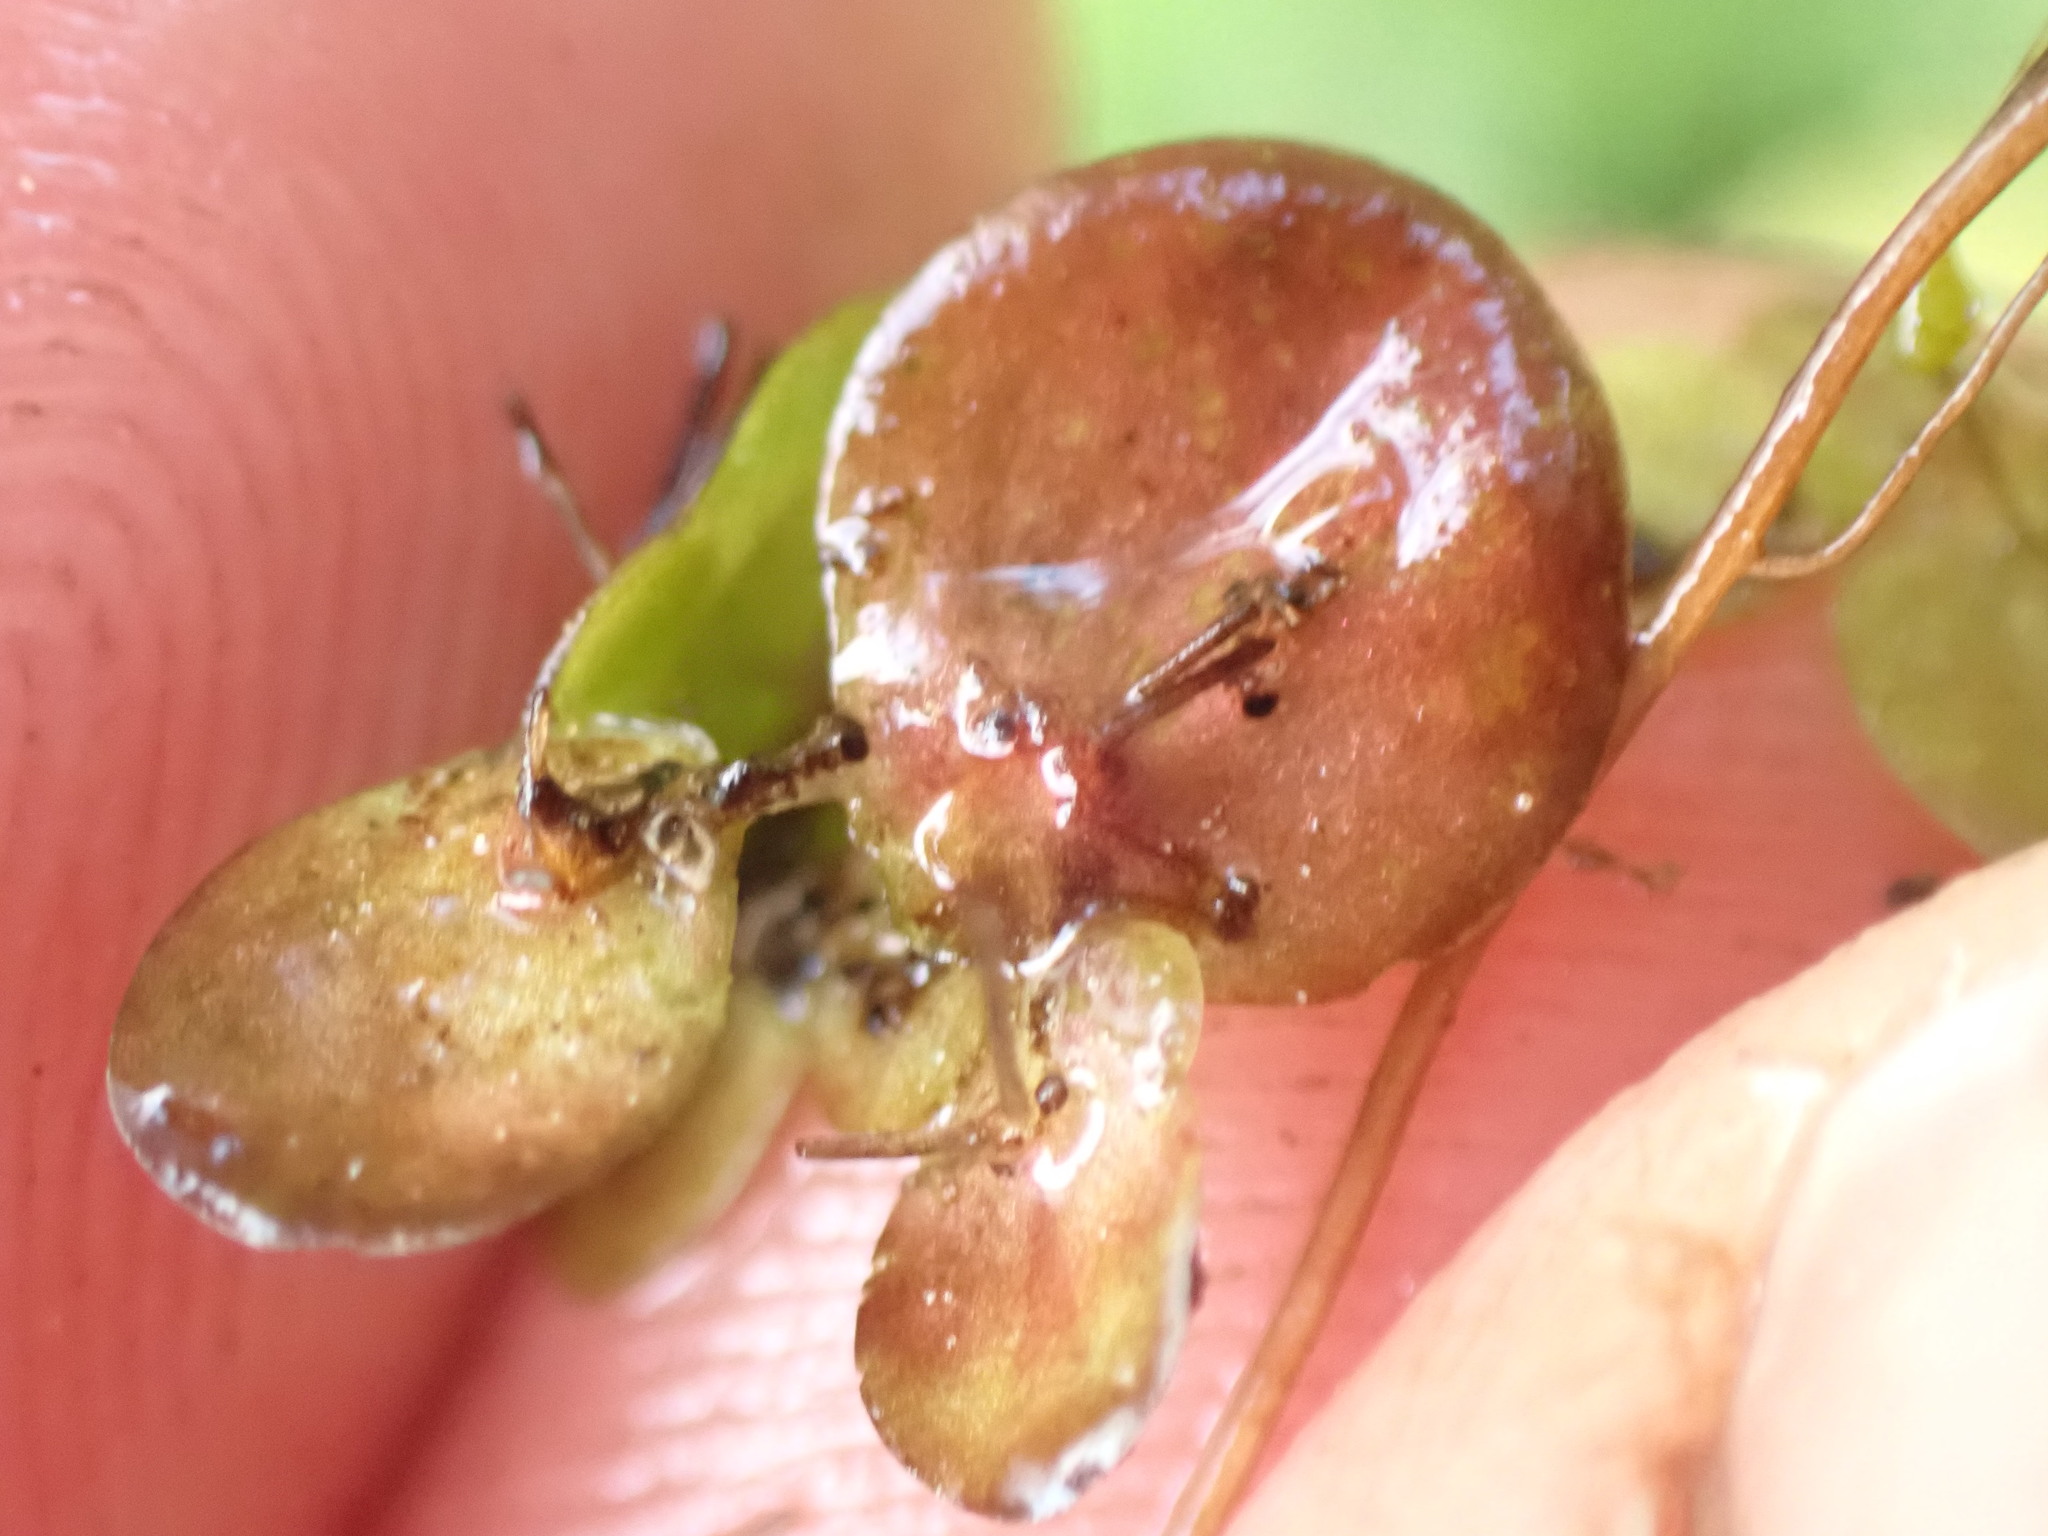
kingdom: Plantae
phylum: Tracheophyta
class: Liliopsida
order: Alismatales
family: Araceae
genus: Spirodela
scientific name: Spirodela polyrhiza
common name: Great duckweed
